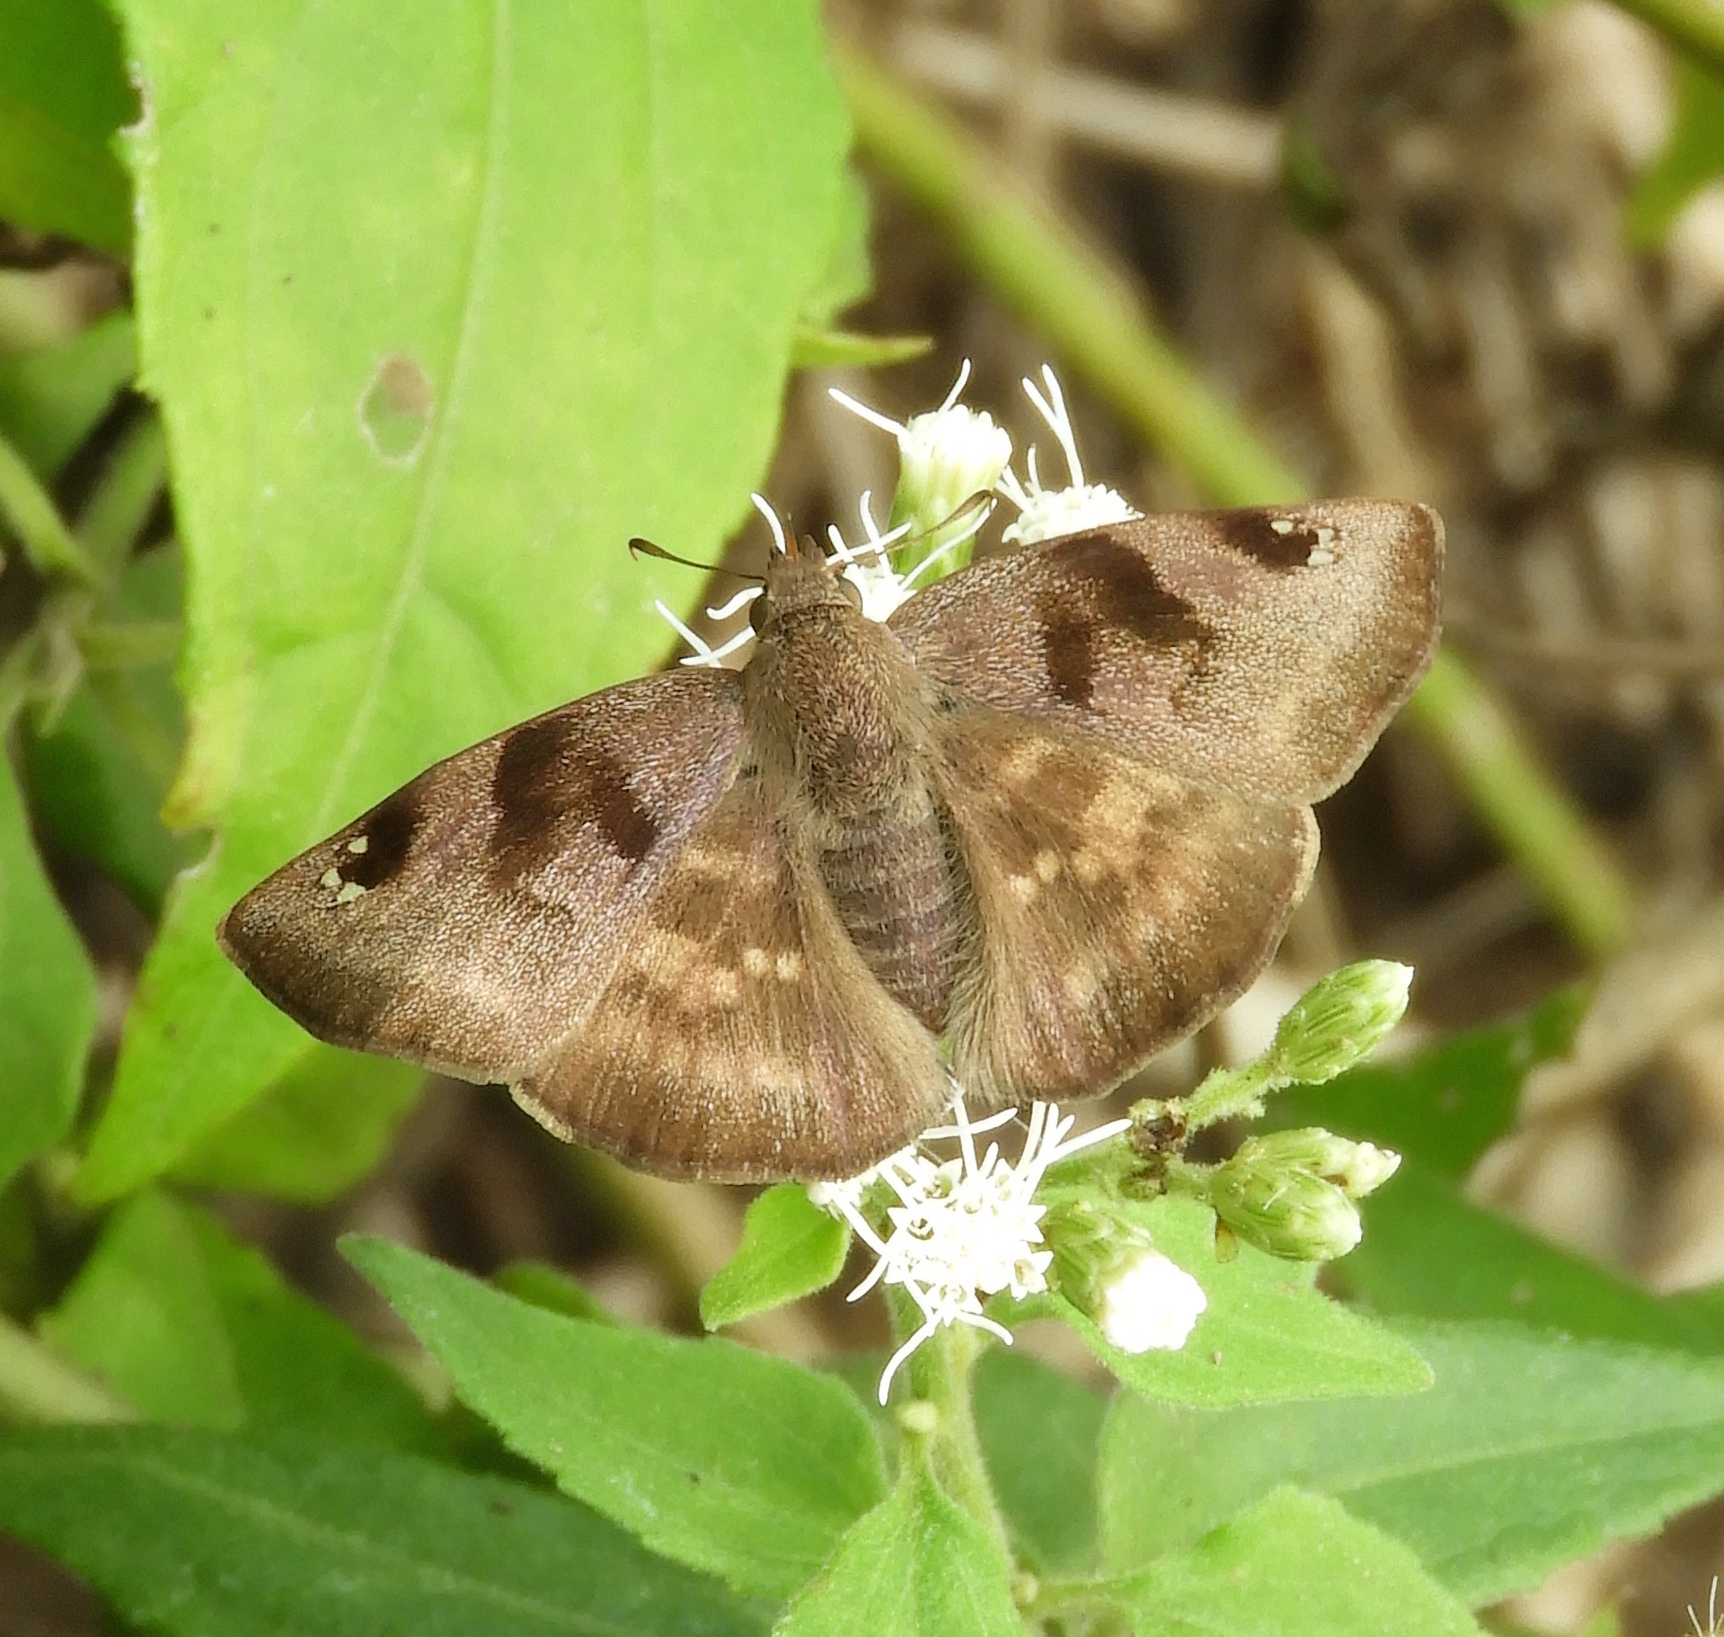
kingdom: Animalia
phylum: Arthropoda
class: Insecta
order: Lepidoptera
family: Hesperiidae
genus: Arteurotia
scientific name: Arteurotia tractipennis
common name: Starred skipper
